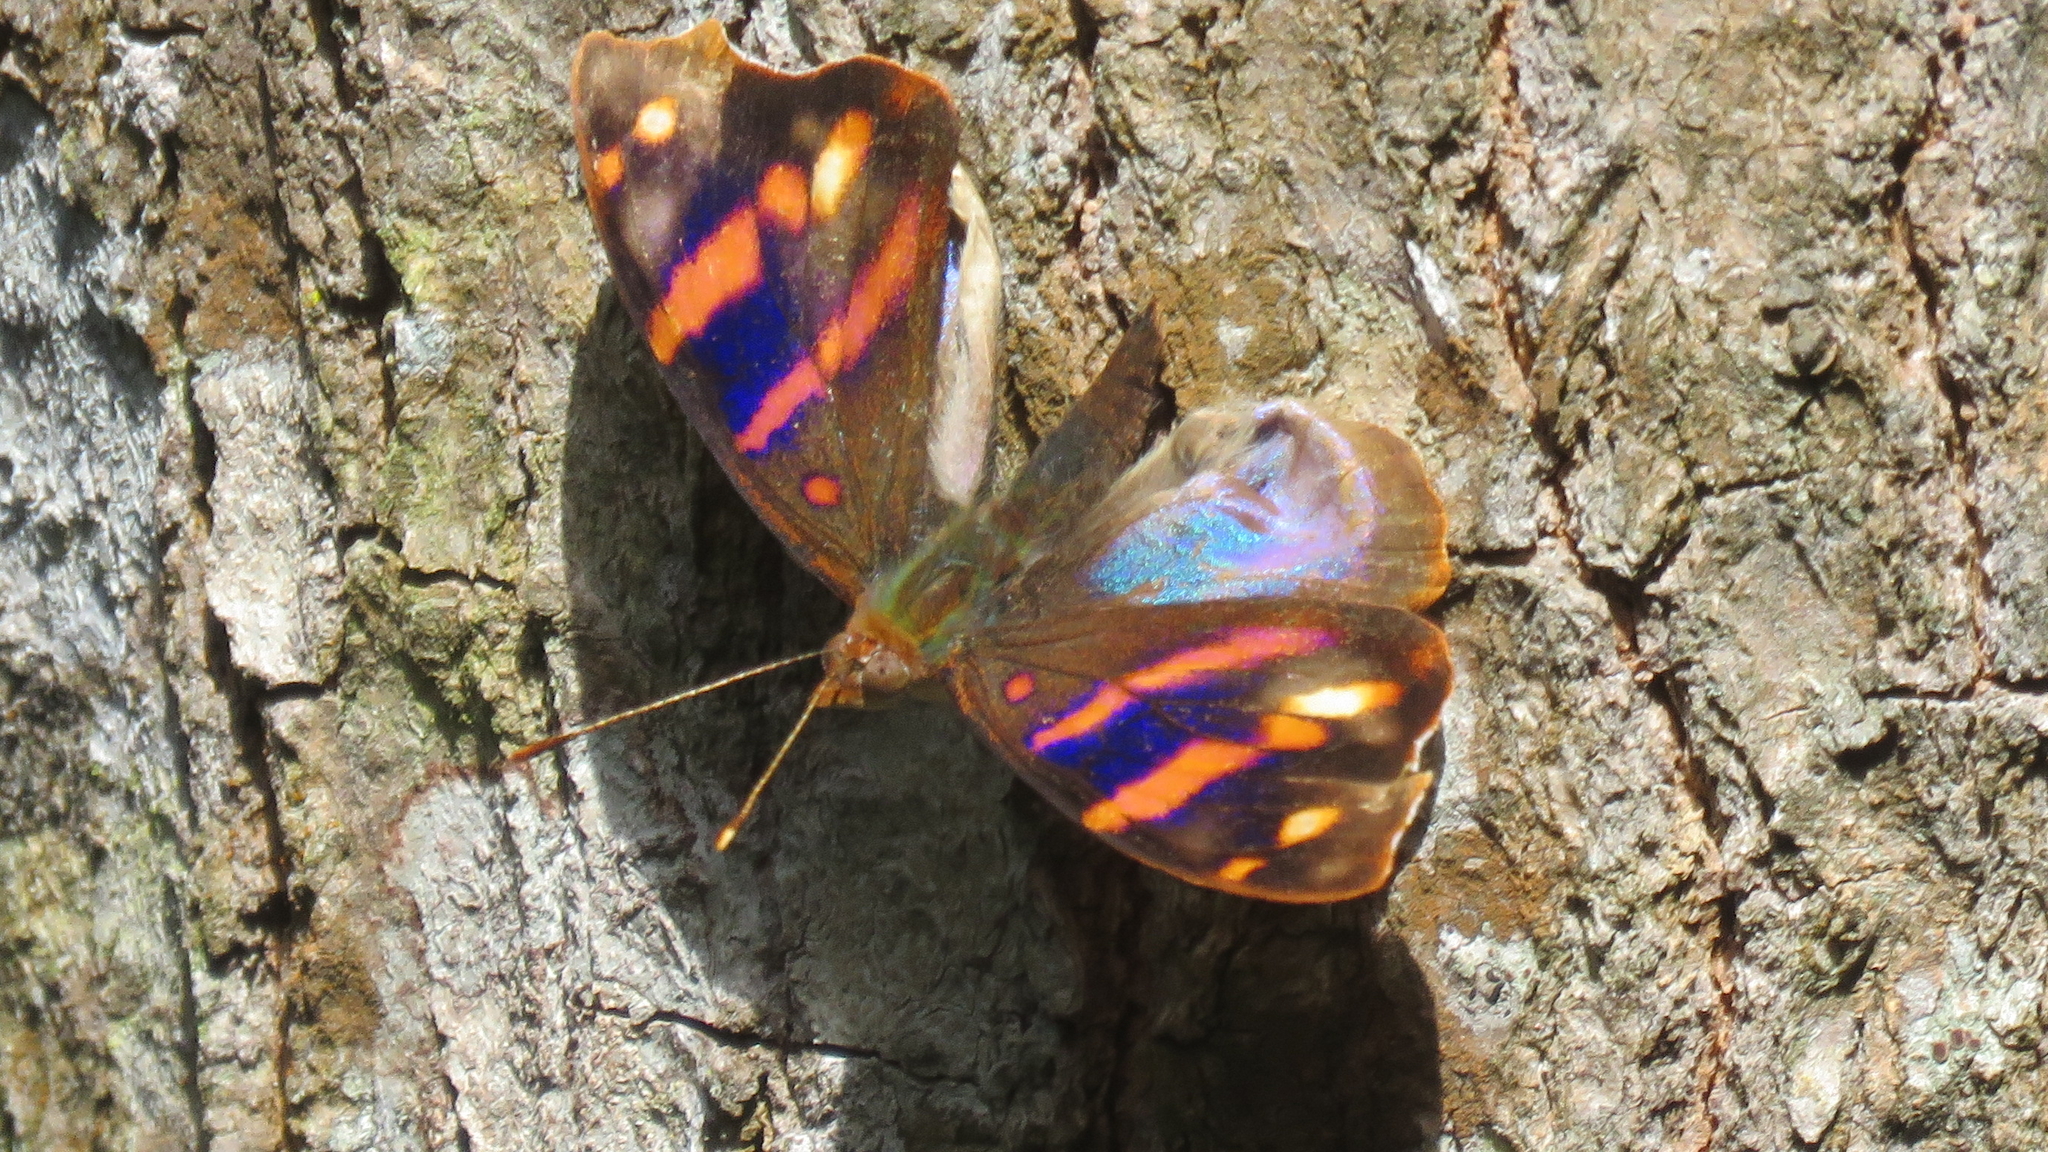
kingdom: Animalia
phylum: Arthropoda
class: Insecta
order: Lepidoptera
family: Nymphalidae
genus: Epiphile
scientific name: Epiphile orea
